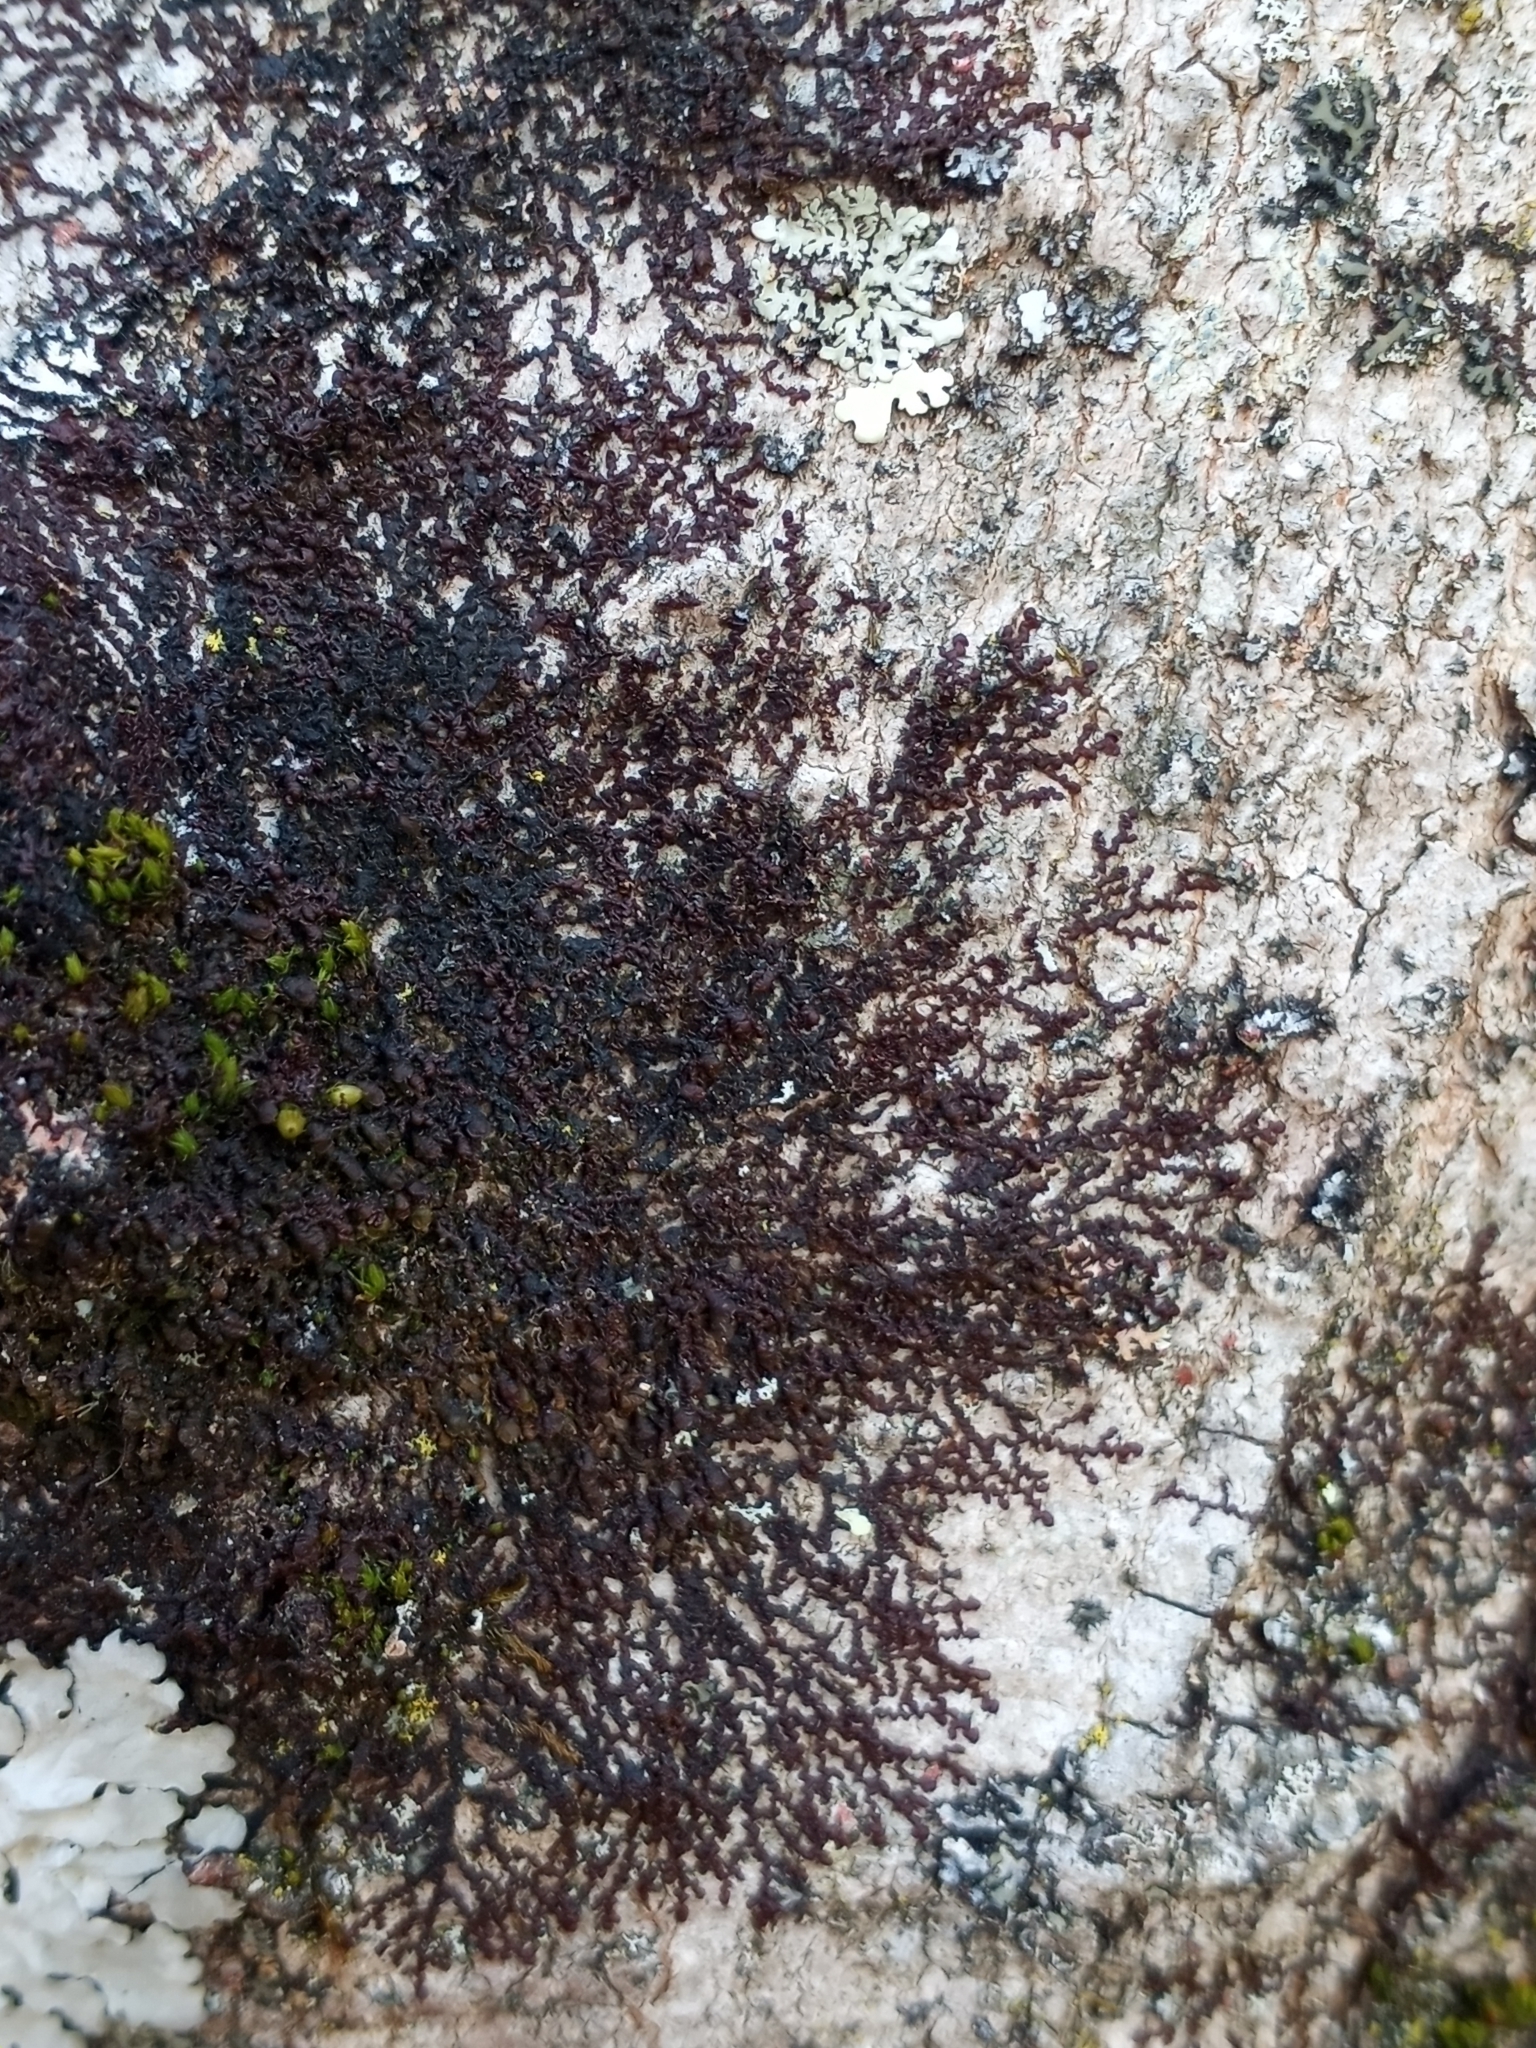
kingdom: Plantae
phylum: Marchantiophyta
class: Jungermanniopsida
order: Porellales
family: Frullaniaceae
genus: Frullania
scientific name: Frullania eboracensis
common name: New york scalewort
